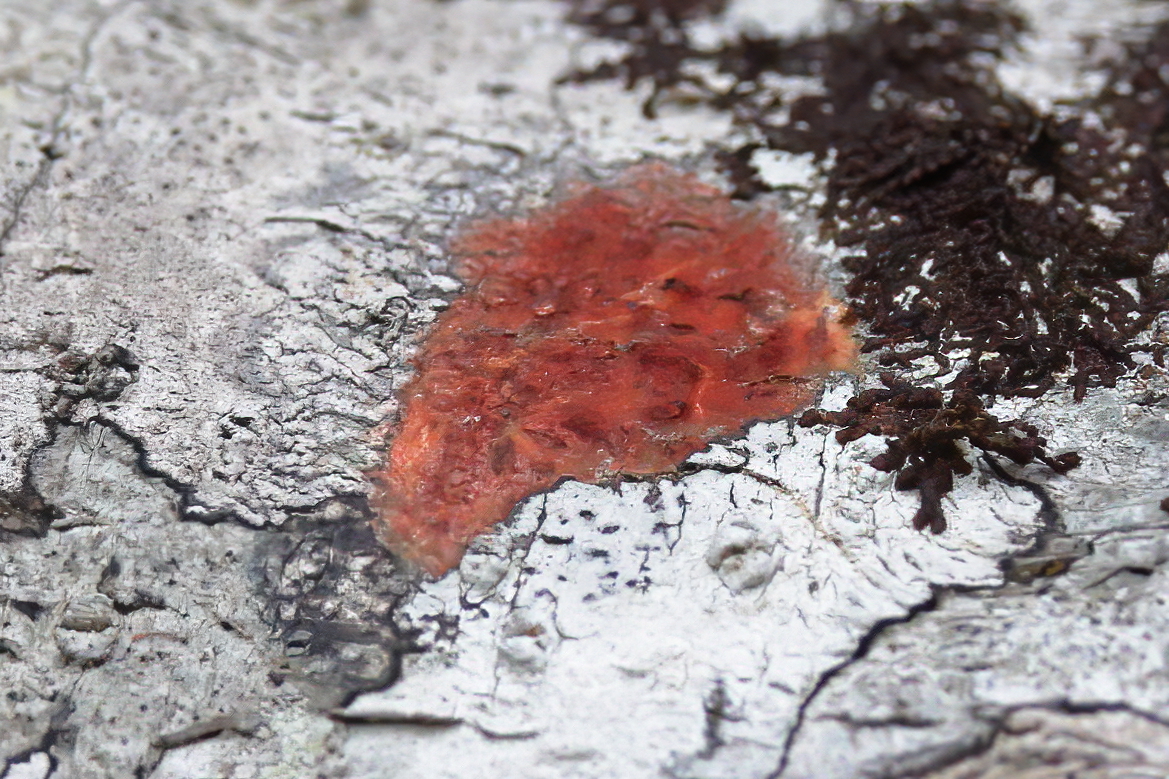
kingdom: Fungi
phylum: Ascomycota
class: Eurotiomycetes
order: Pyrenulales
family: Pyrenulaceae
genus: Pyrenula
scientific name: Pyrenula cruenta
